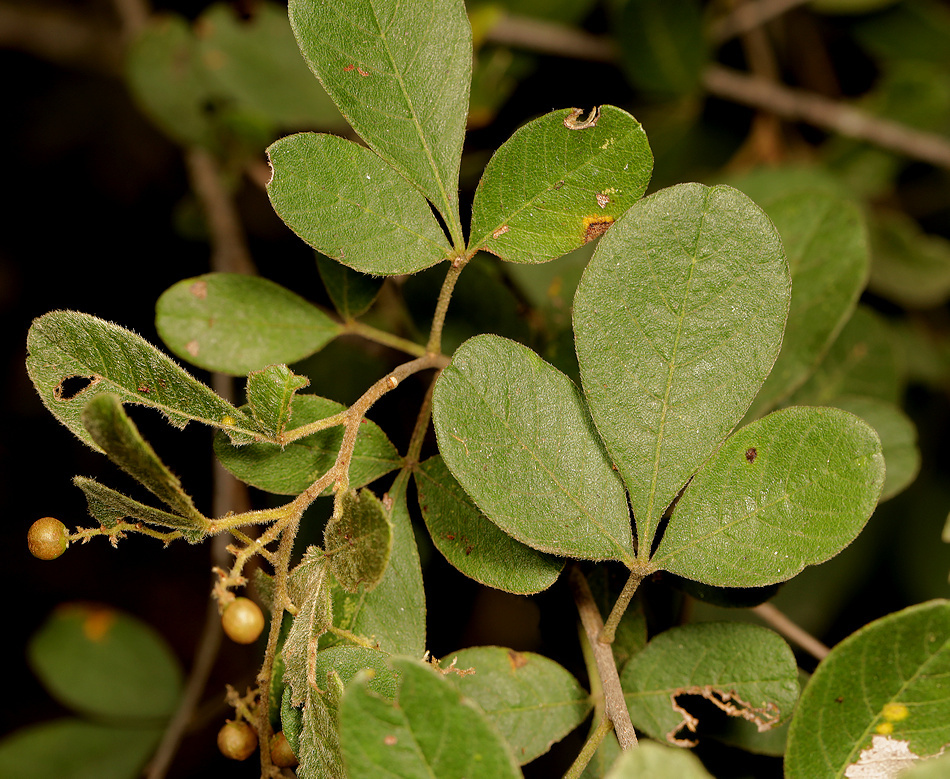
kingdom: Plantae
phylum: Tracheophyta
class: Magnoliopsida
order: Sapindales
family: Anacardiaceae
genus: Searsia
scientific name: Searsia pyroides
